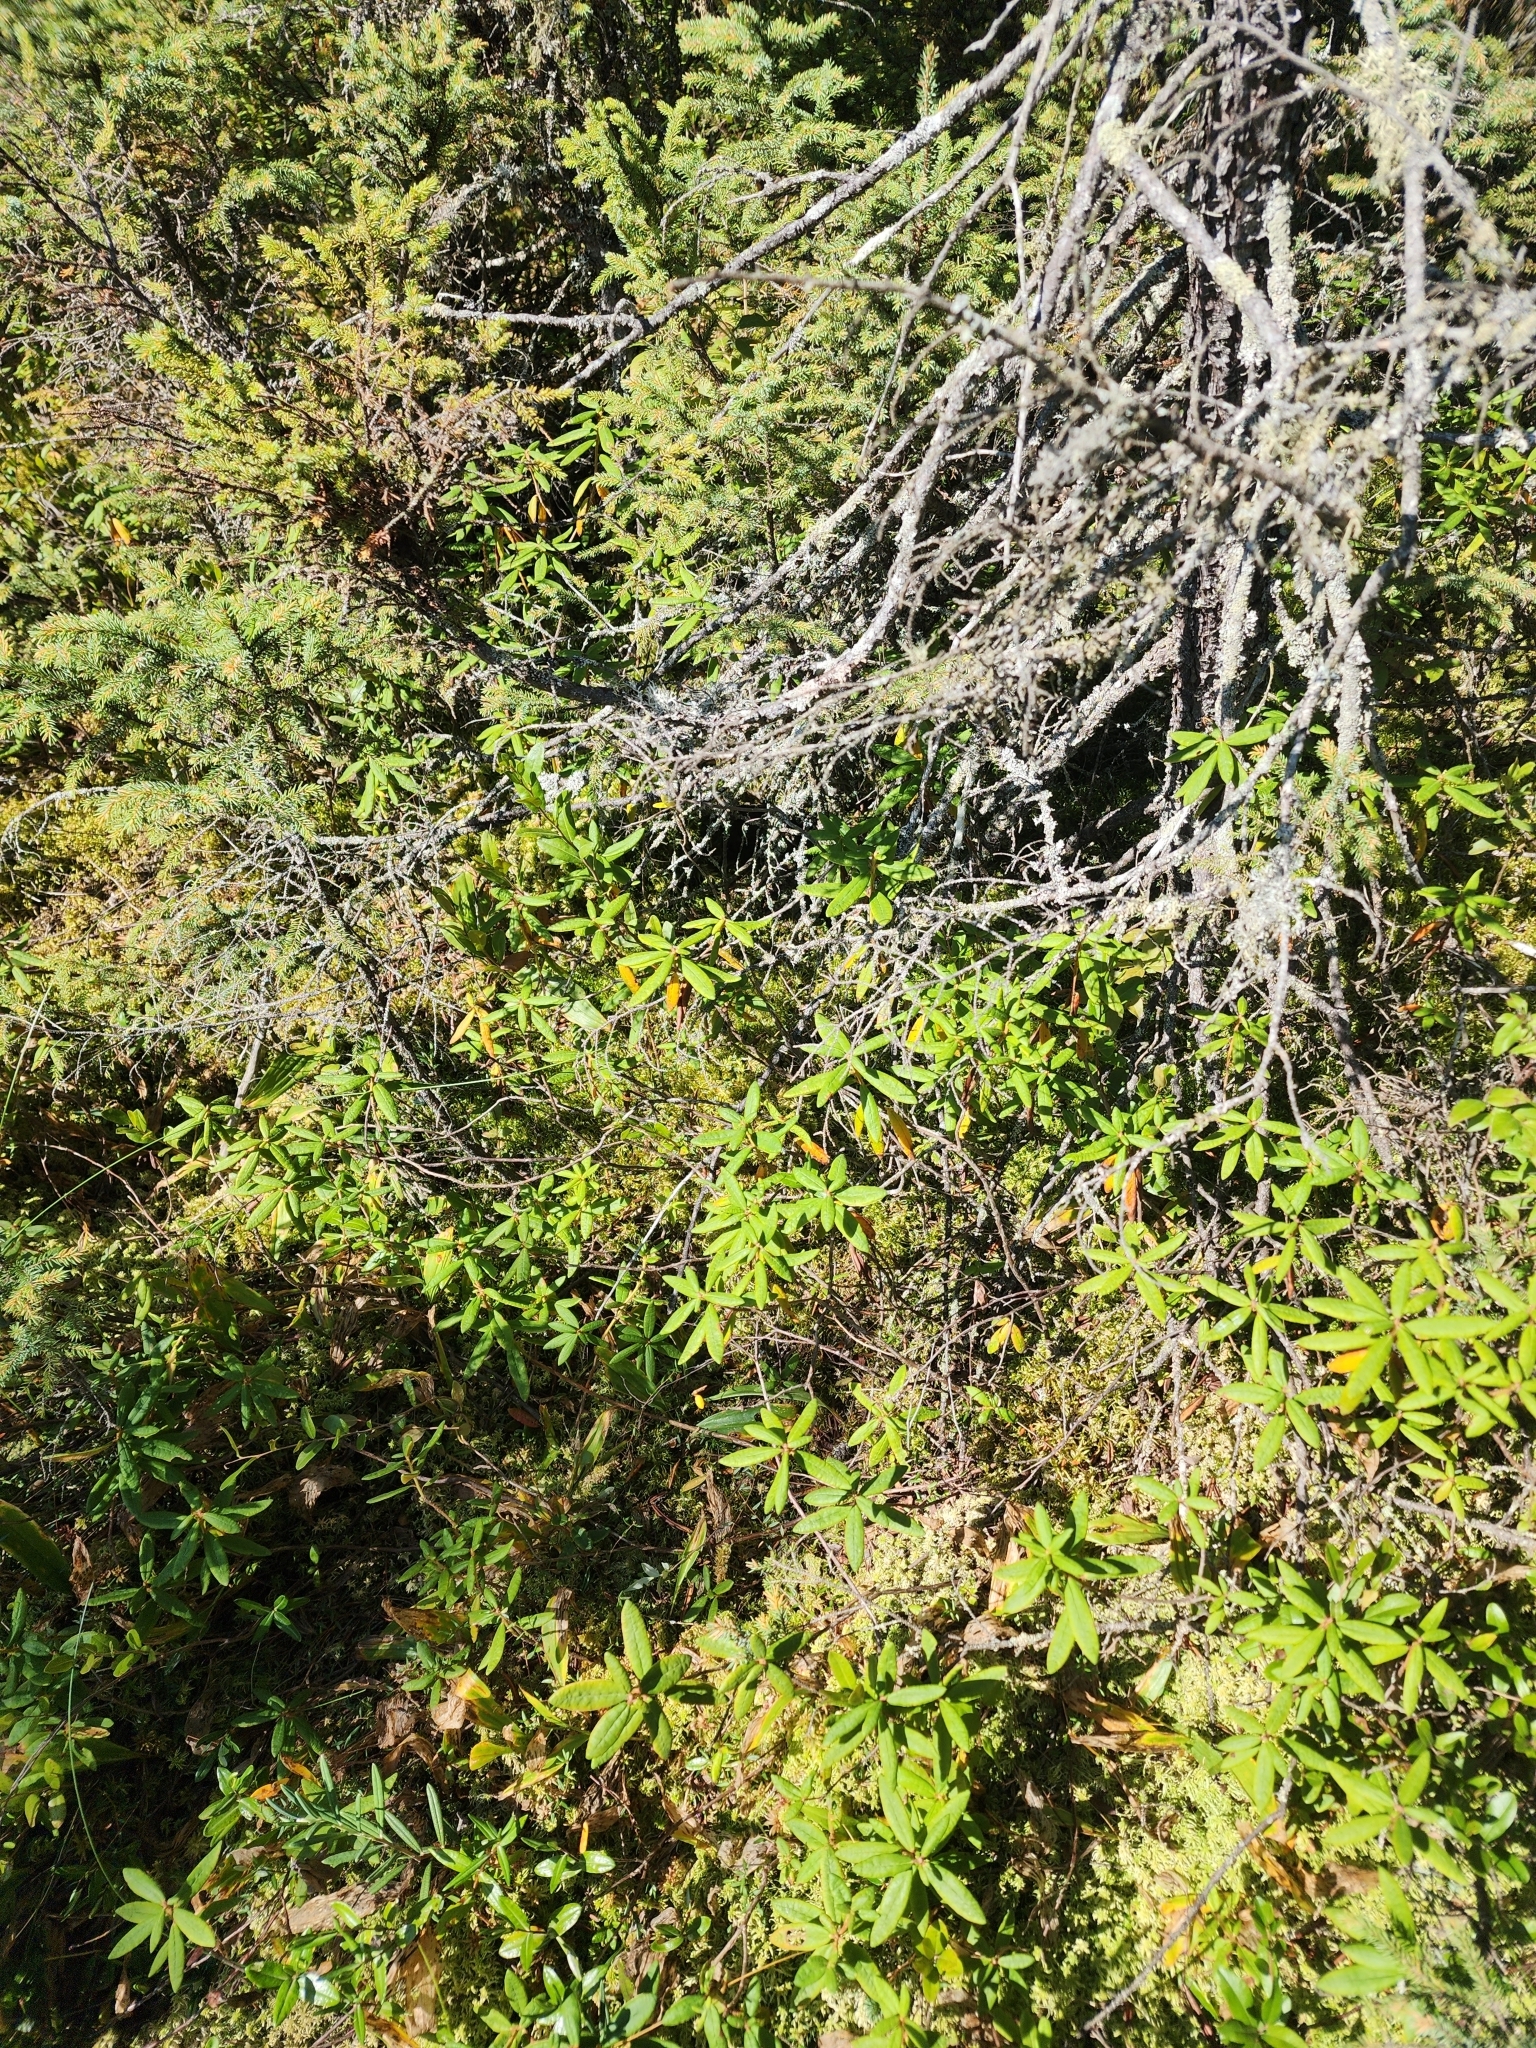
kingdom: Plantae
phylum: Tracheophyta
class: Magnoliopsida
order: Ericales
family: Ericaceae
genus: Rhododendron
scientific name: Rhododendron groenlandicum
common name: Bog labrador tea
